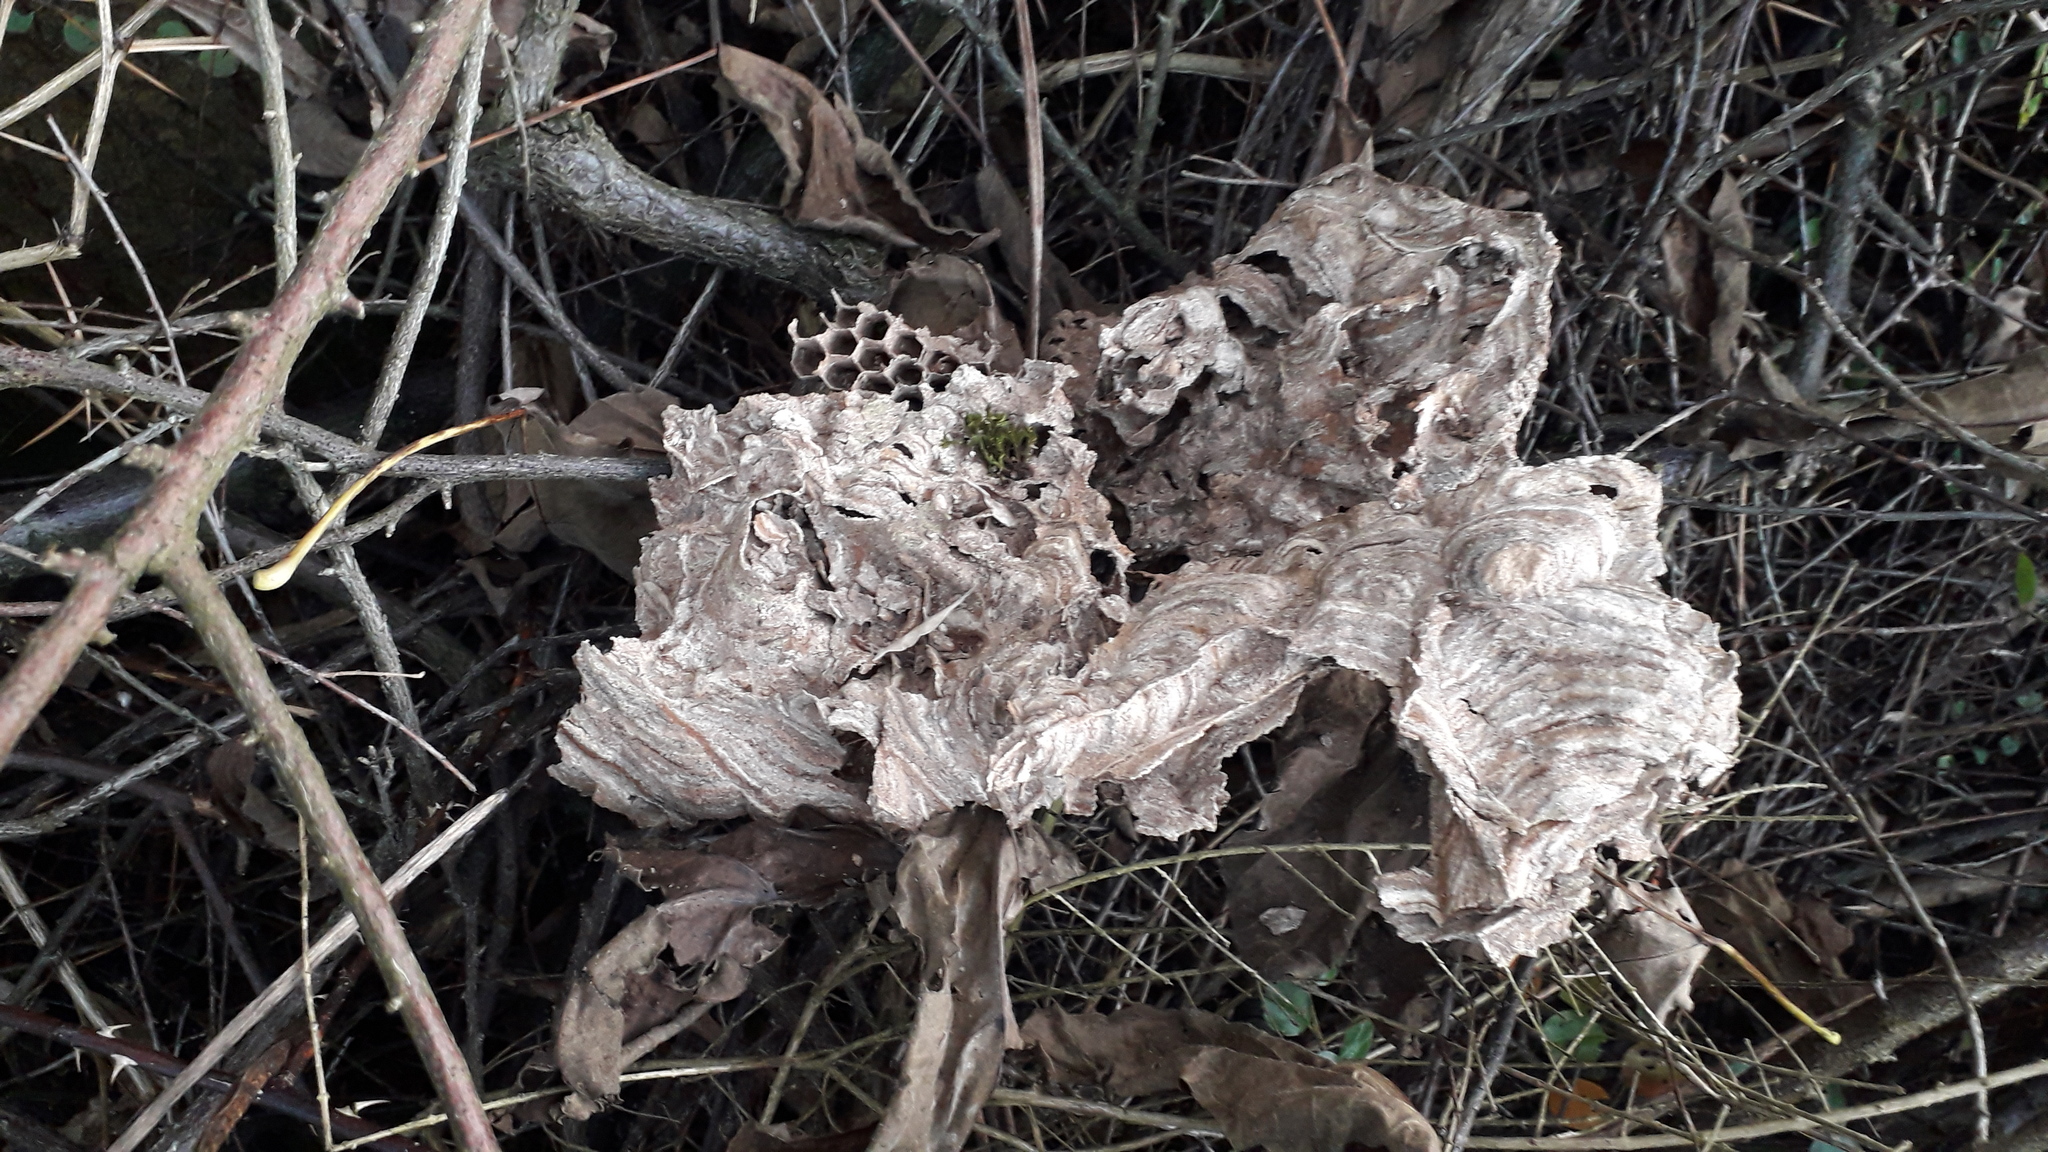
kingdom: Animalia
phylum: Arthropoda
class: Insecta
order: Hymenoptera
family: Vespidae
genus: Vespa
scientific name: Vespa velutina
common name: Asian hornet
